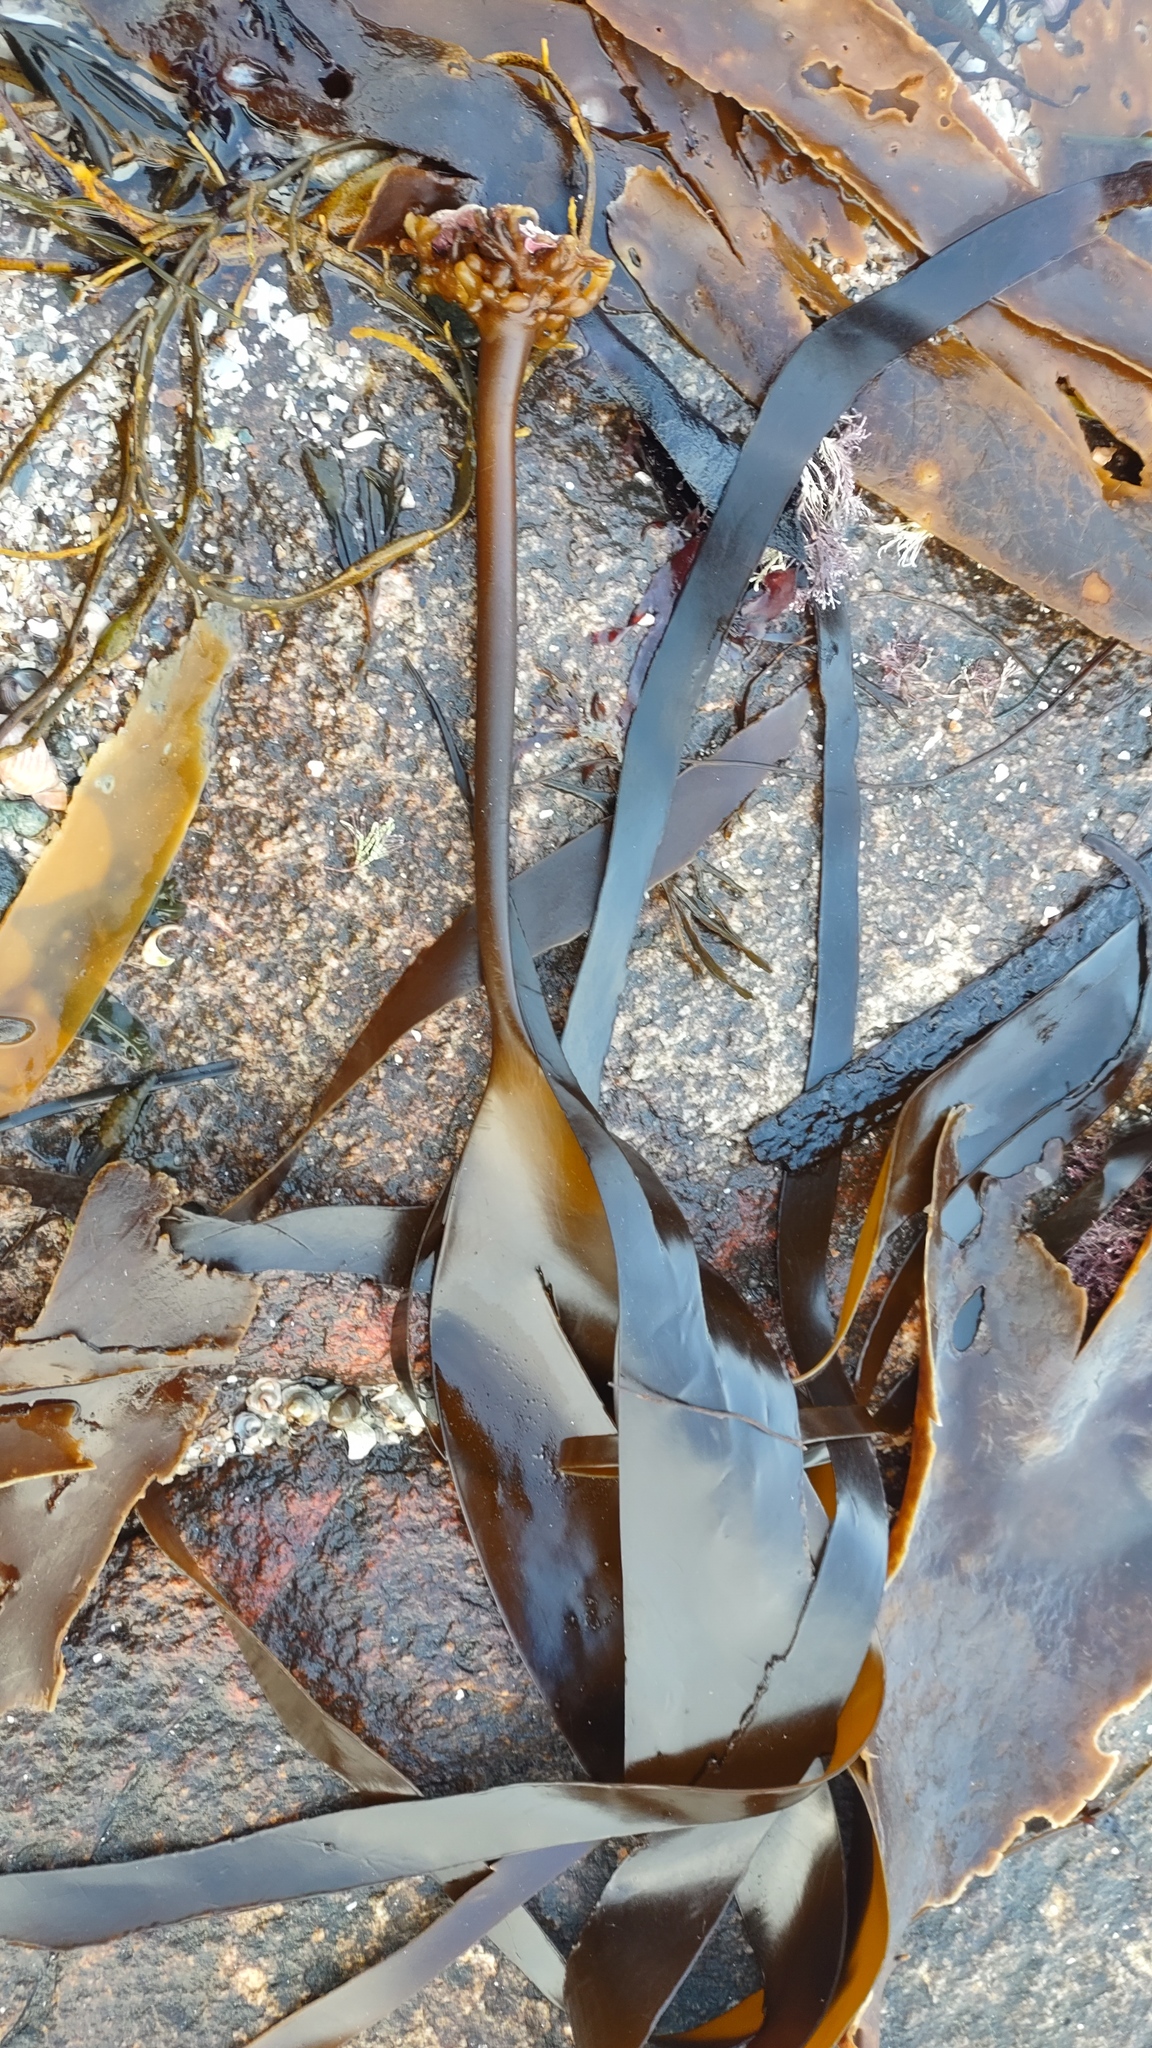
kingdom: Chromista
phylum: Ochrophyta
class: Phaeophyceae
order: Laminariales
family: Laminariaceae
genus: Laminaria
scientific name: Laminaria digitata
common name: Oarweed
